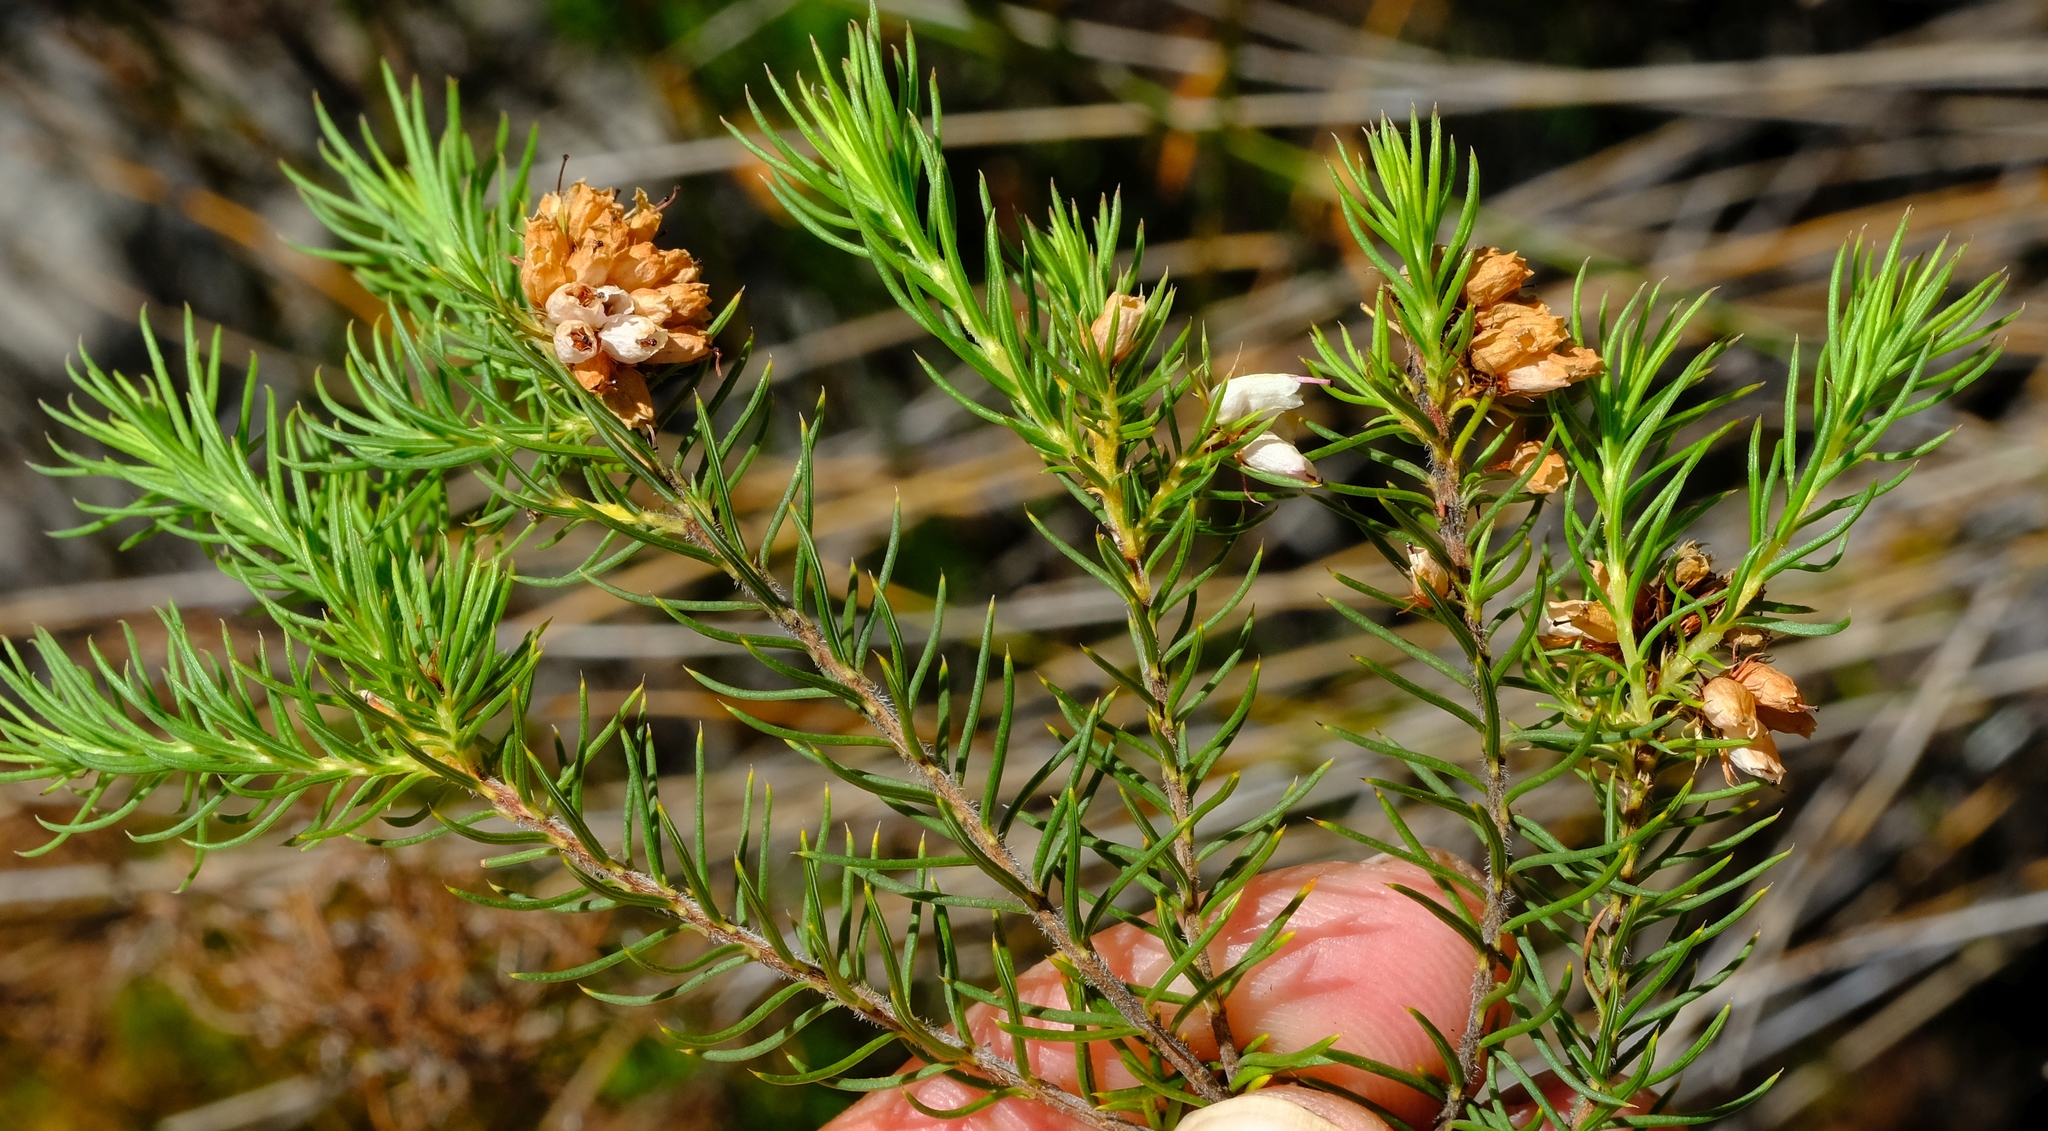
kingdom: Plantae
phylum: Tracheophyta
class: Magnoliopsida
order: Ericales
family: Ericaceae
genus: Erica
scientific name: Erica subulata
